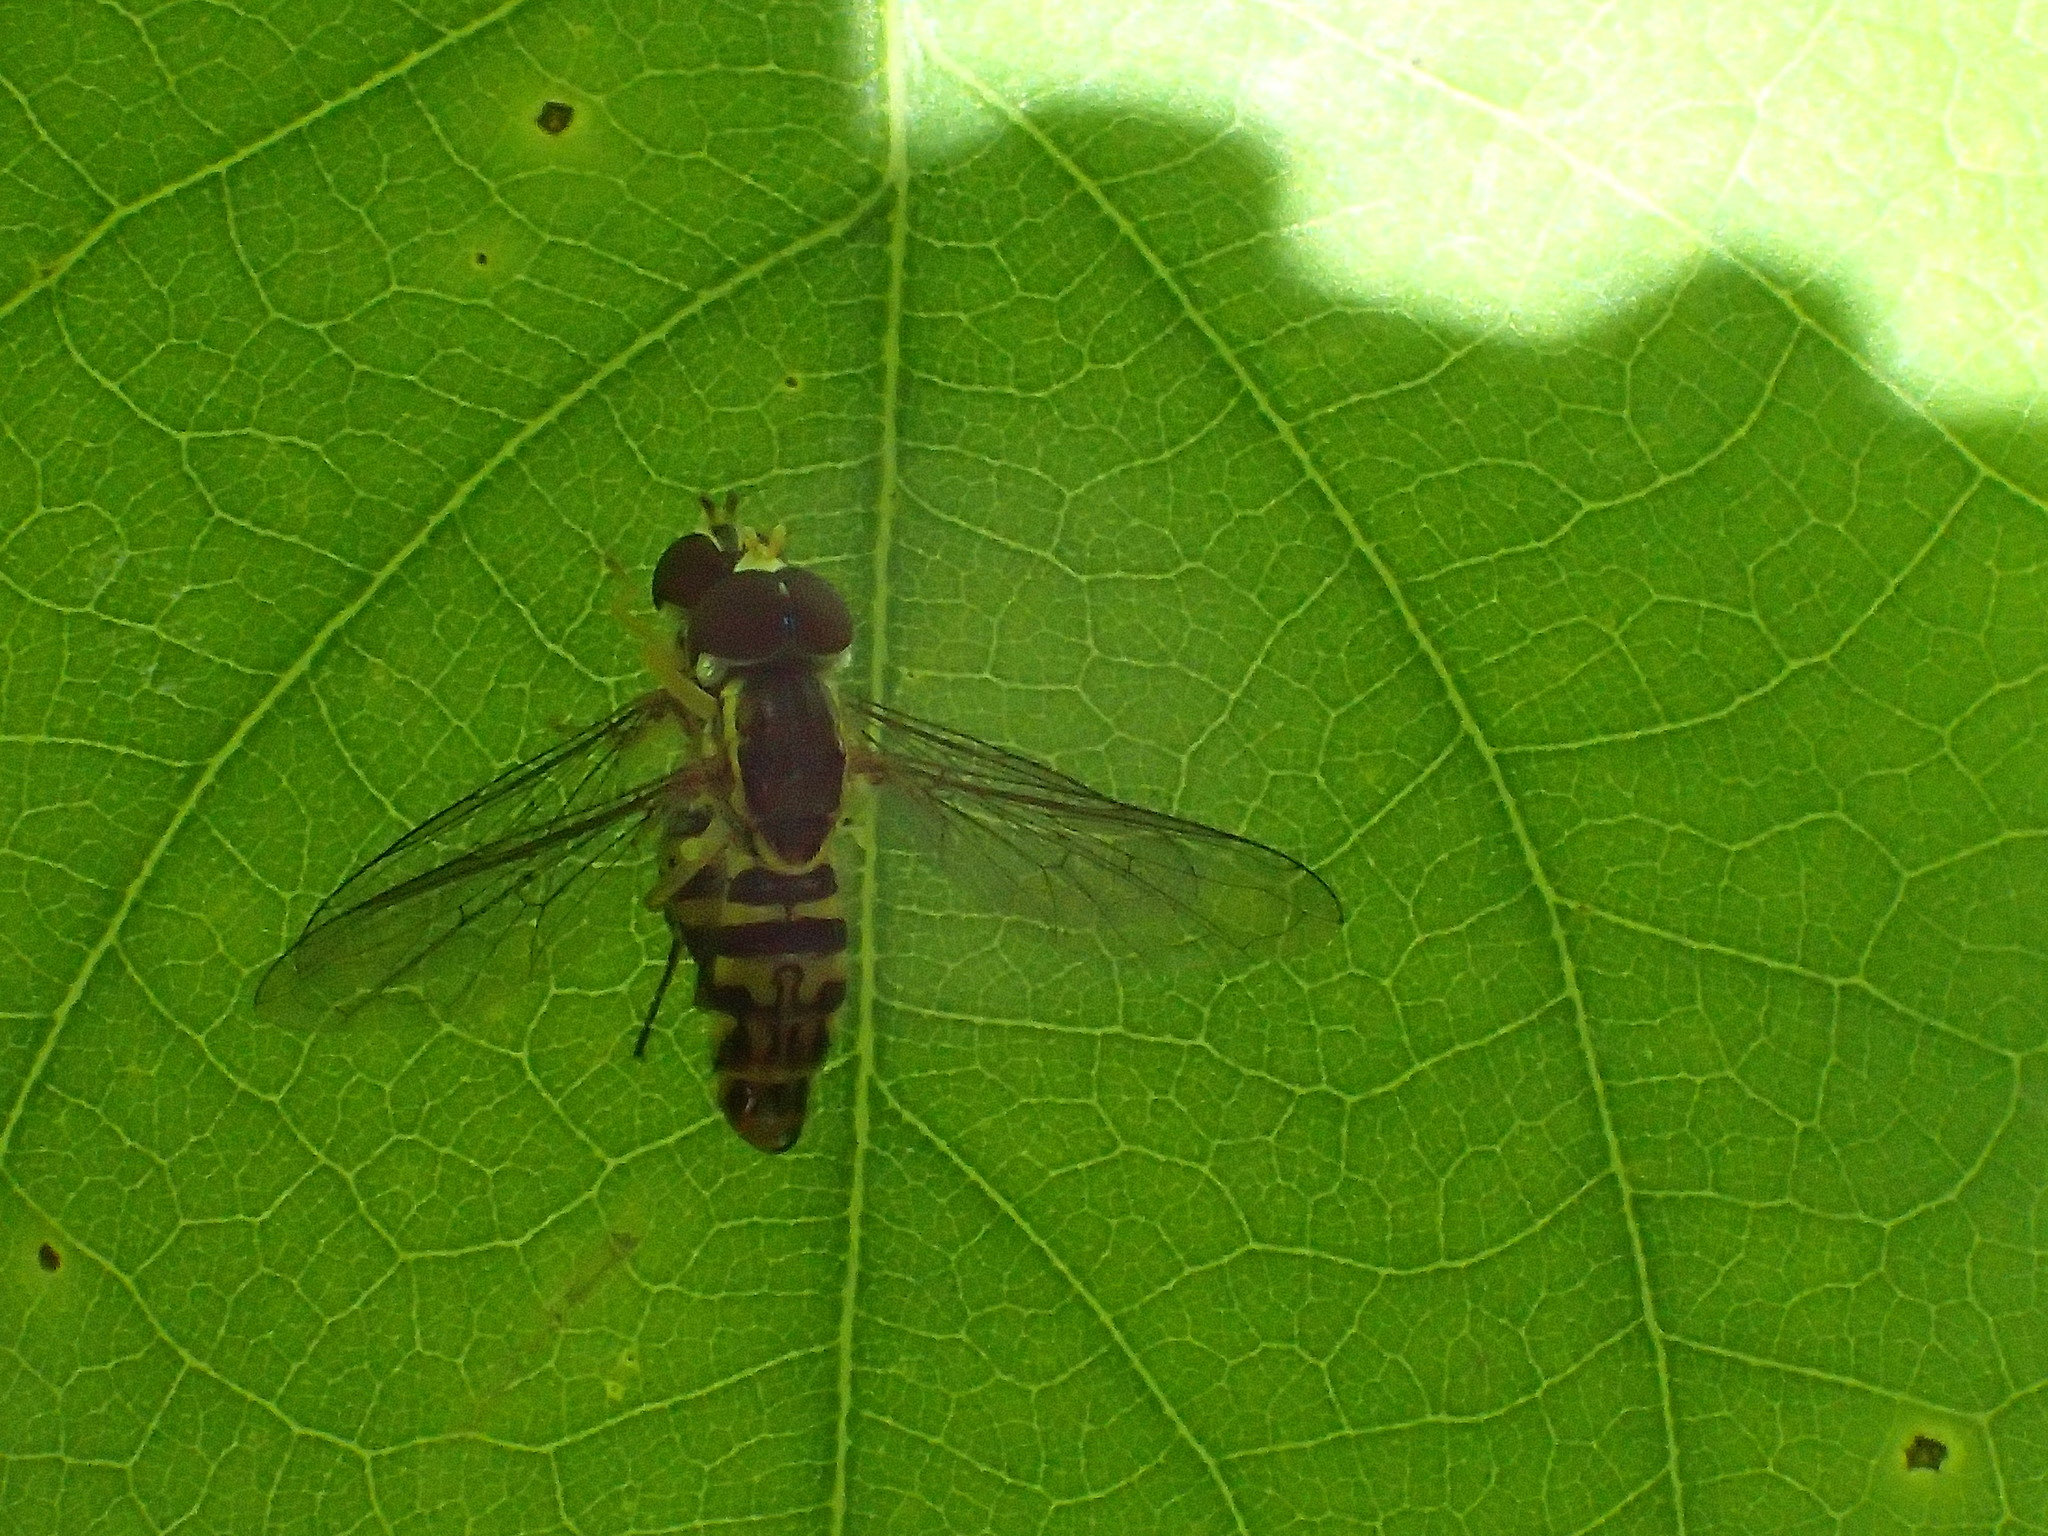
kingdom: Animalia
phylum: Arthropoda
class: Insecta
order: Diptera
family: Syrphidae
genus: Toxomerus
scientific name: Toxomerus geminatus
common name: Eastern calligrapher
